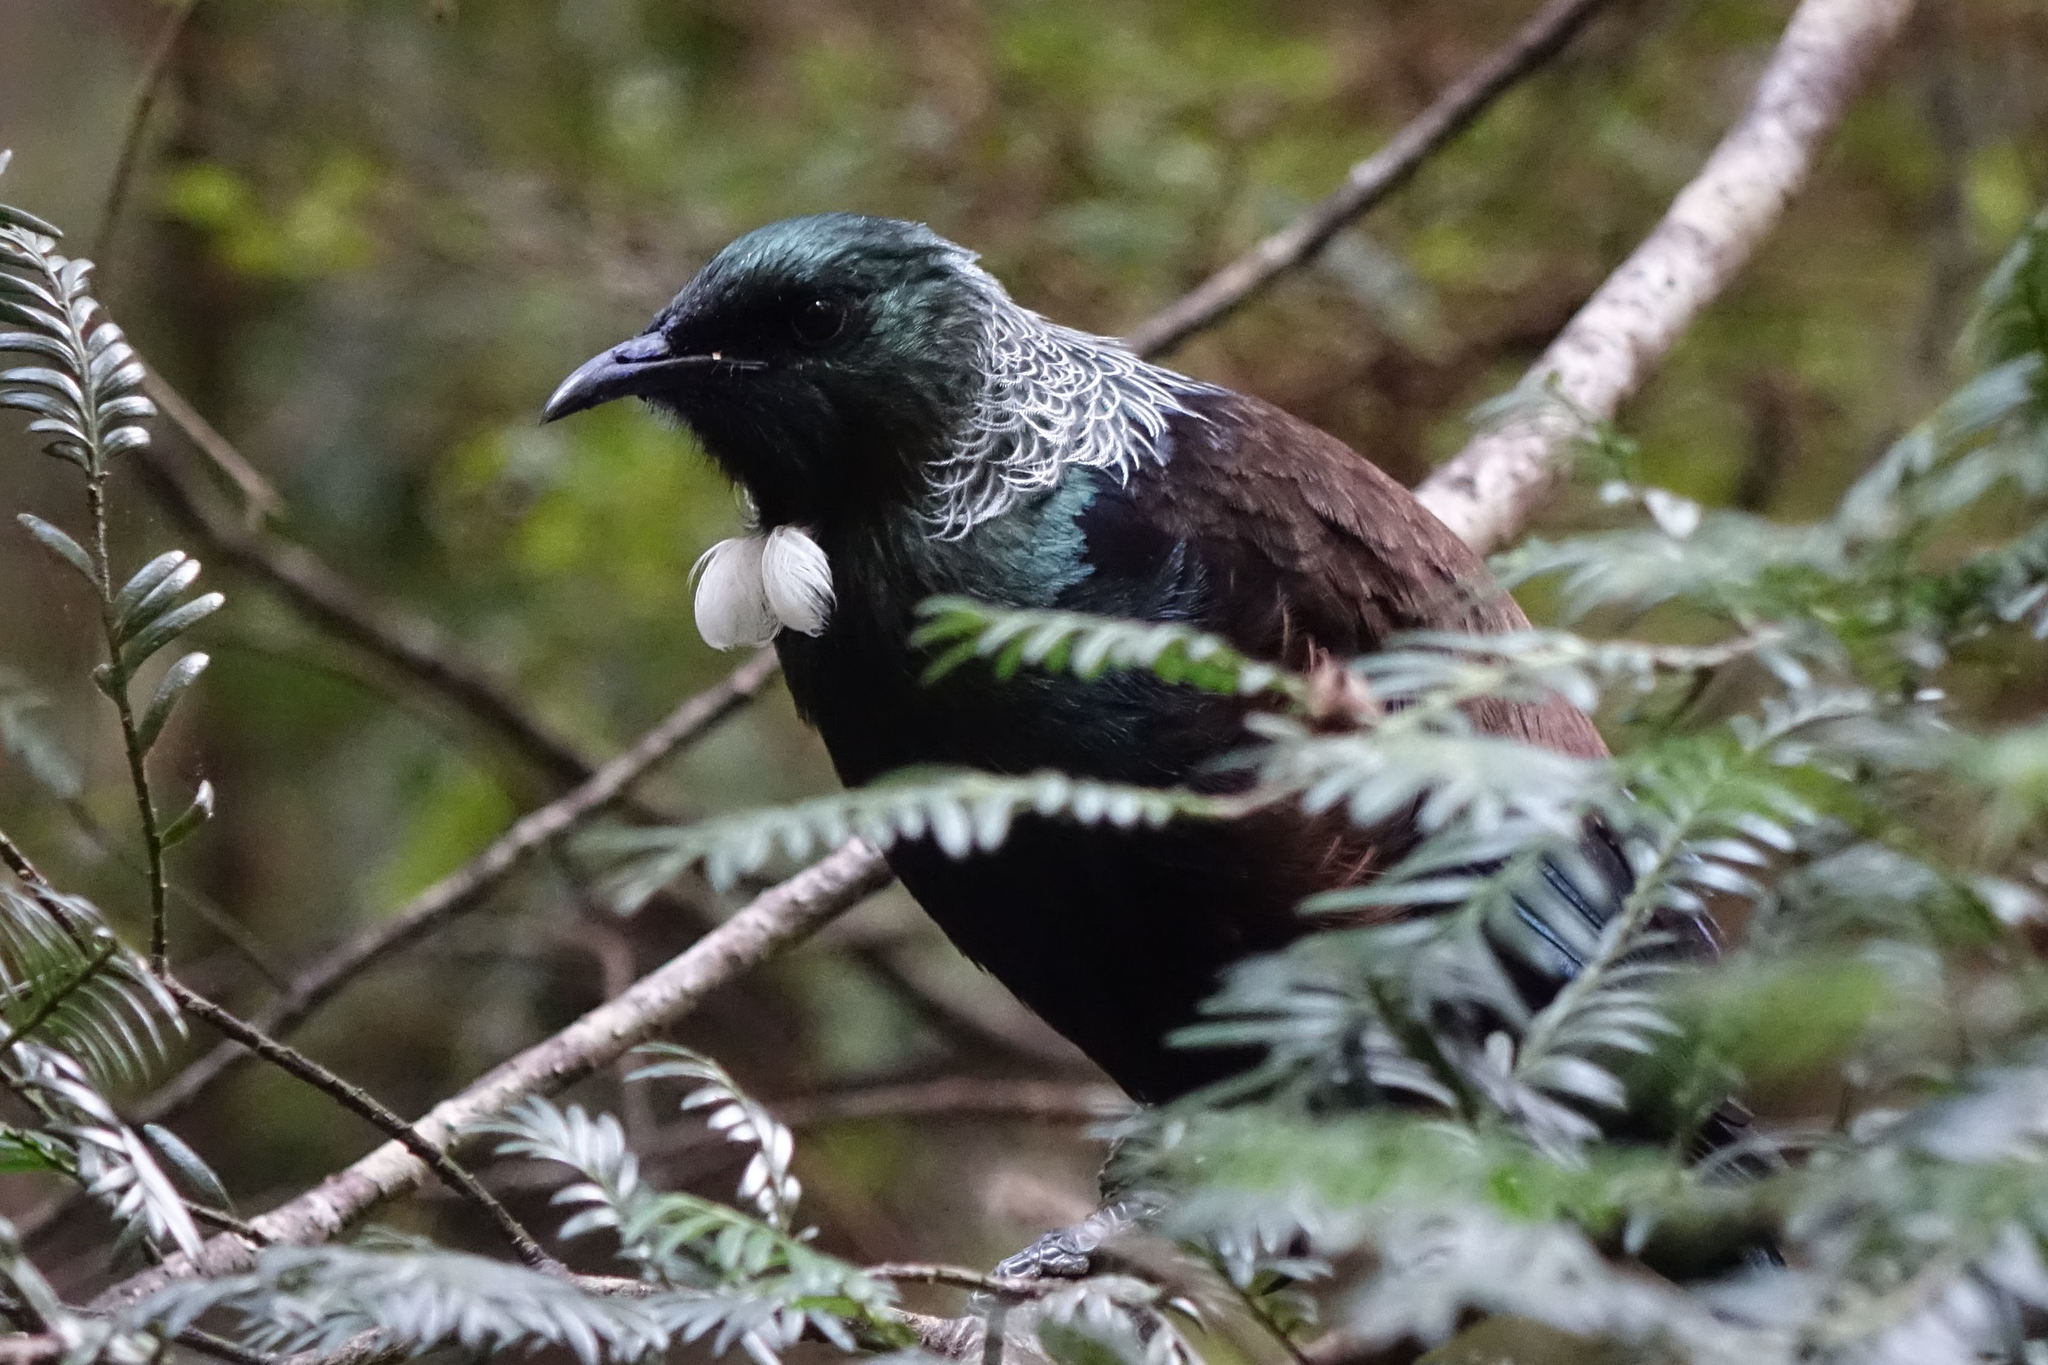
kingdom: Animalia
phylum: Chordata
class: Aves
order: Passeriformes
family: Meliphagidae
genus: Prosthemadera
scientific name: Prosthemadera novaeseelandiae
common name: Tui
